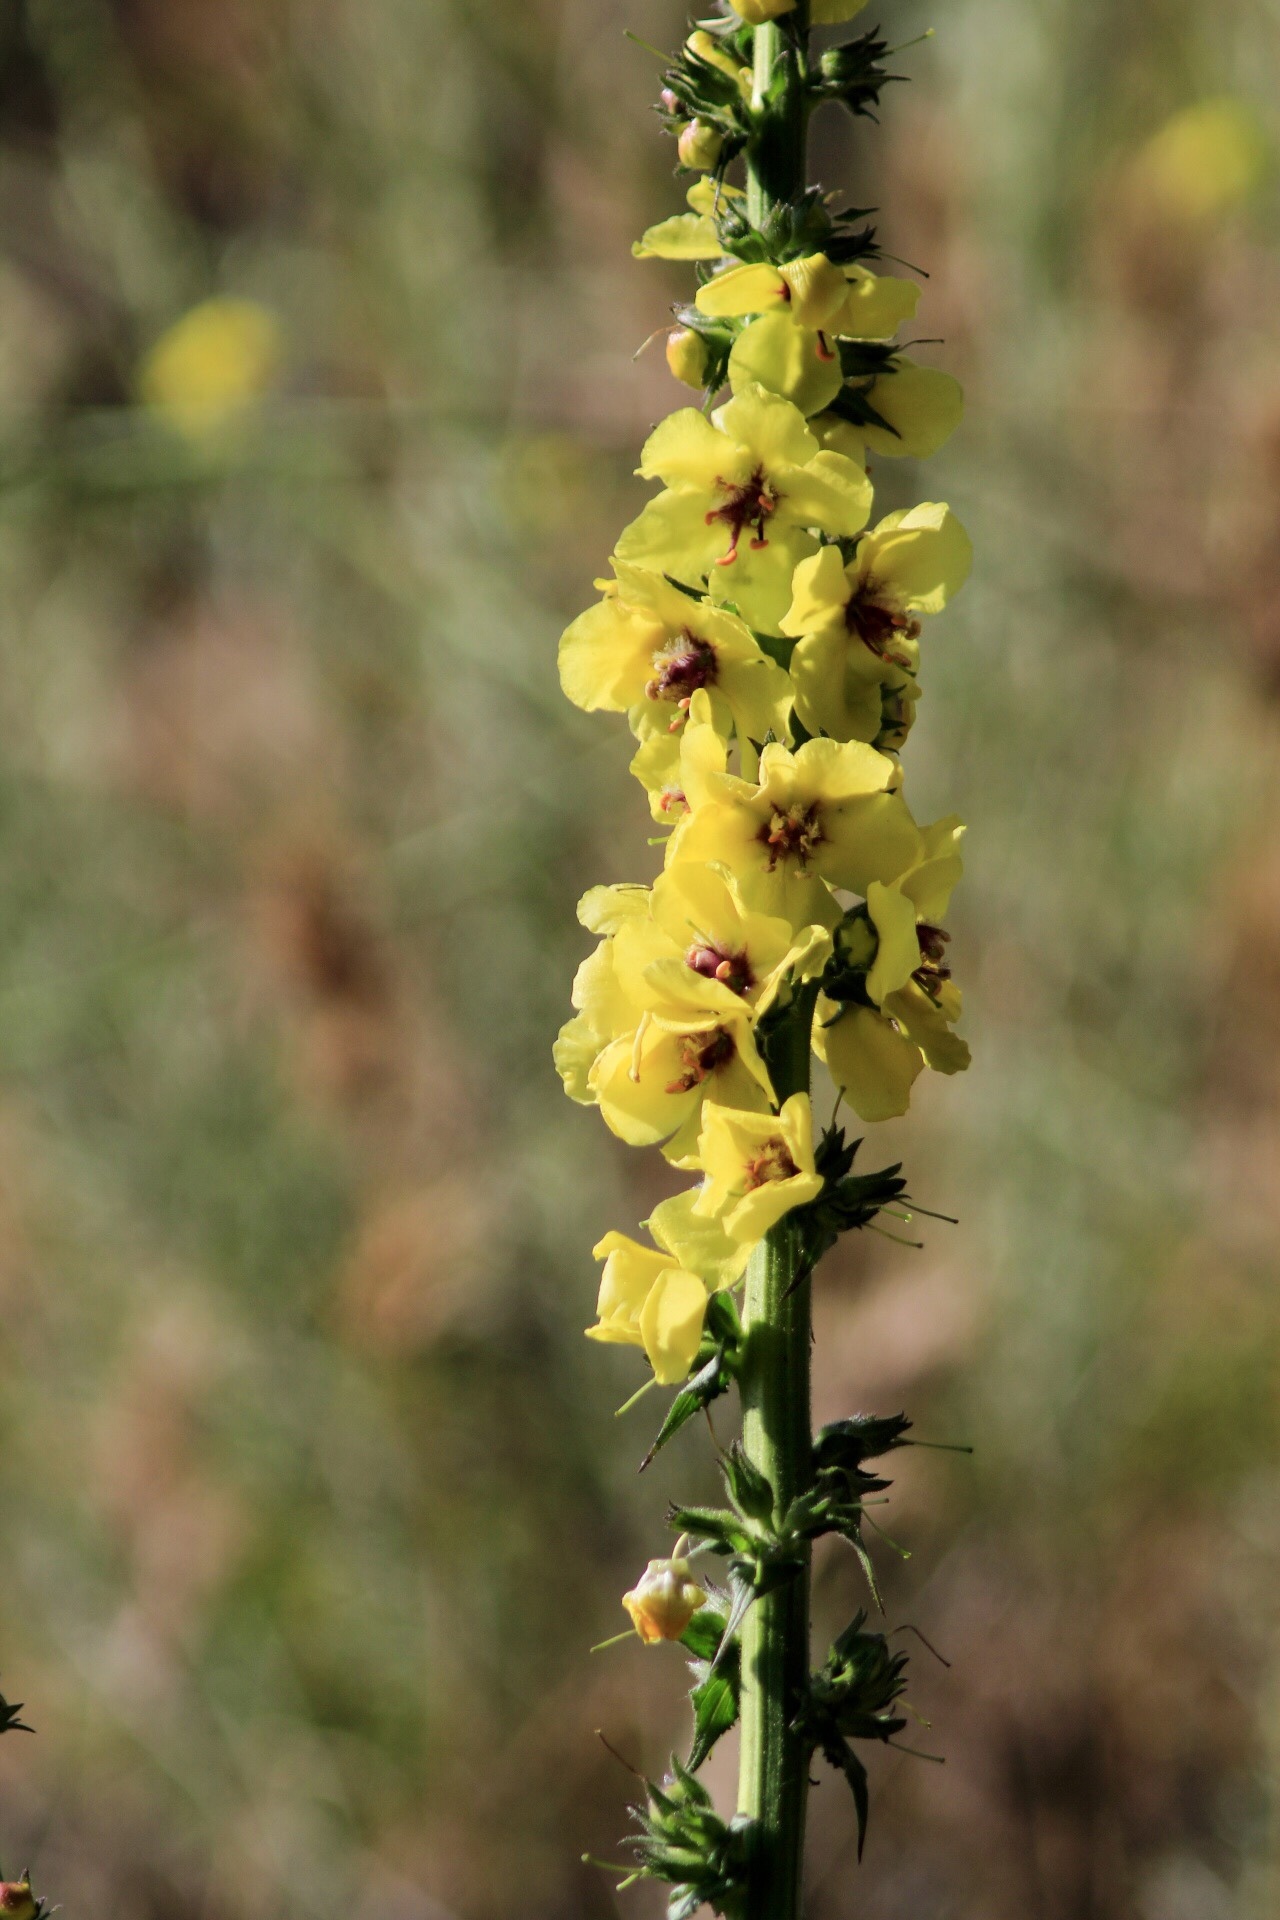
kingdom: Plantae
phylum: Tracheophyta
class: Magnoliopsida
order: Lamiales
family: Scrophulariaceae
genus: Verbascum
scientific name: Verbascum virgatum
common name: Twiggy mullein
